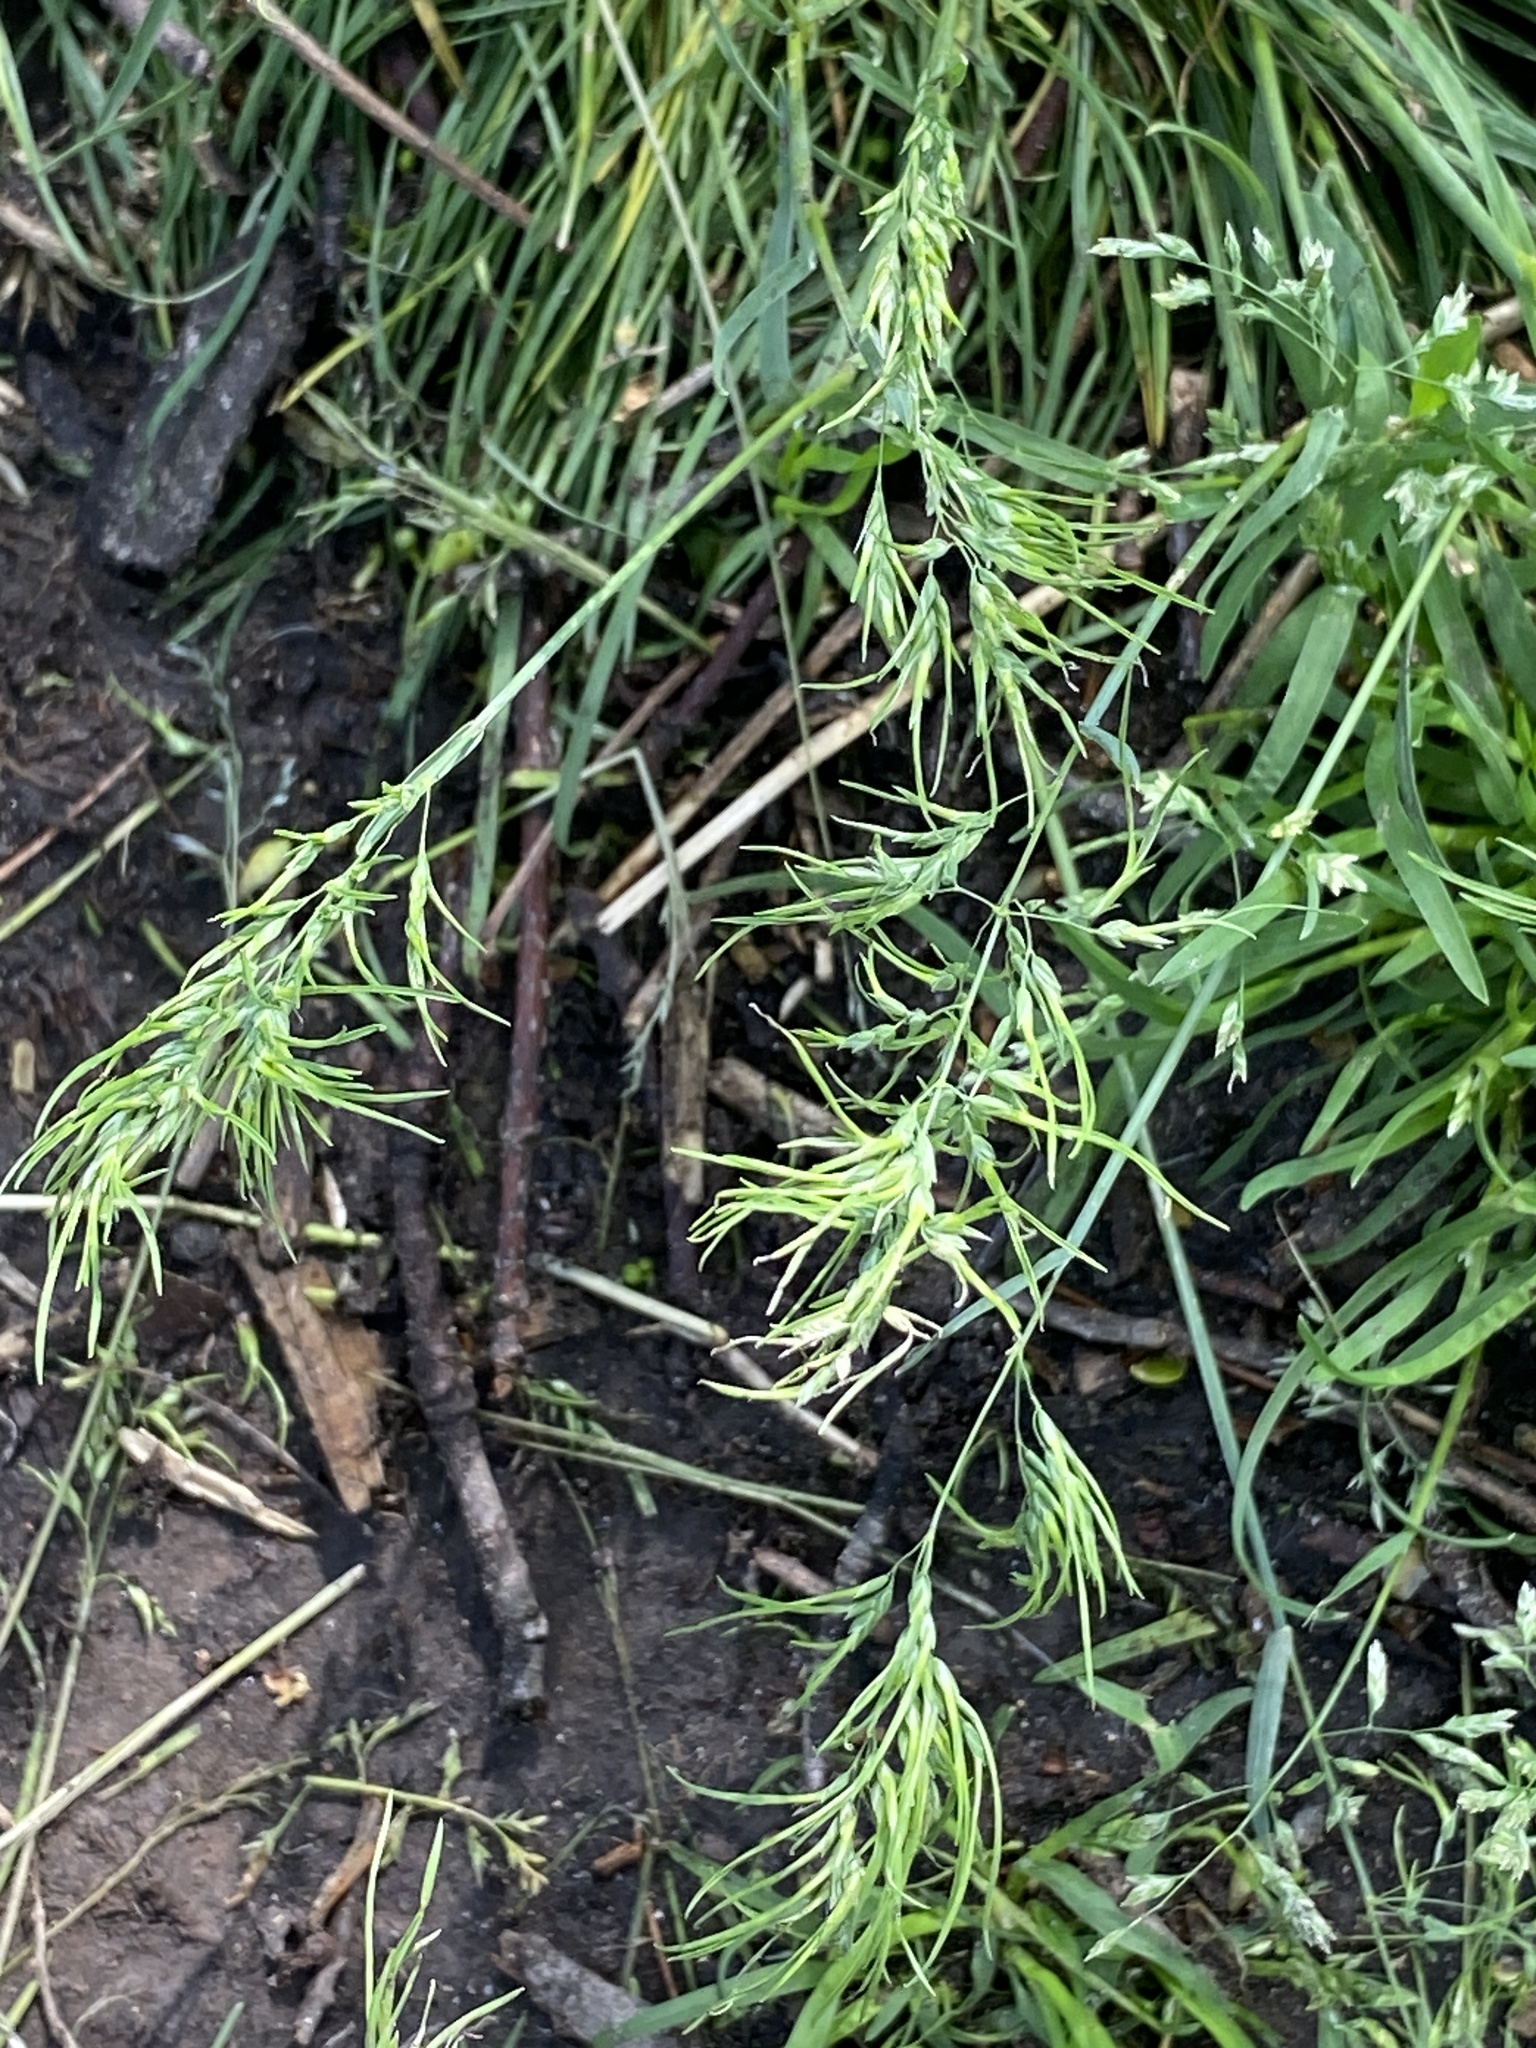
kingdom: Plantae
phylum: Tracheophyta
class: Liliopsida
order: Poales
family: Poaceae
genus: Poa
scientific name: Poa bulbosa
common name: Bulbous bluegrass
